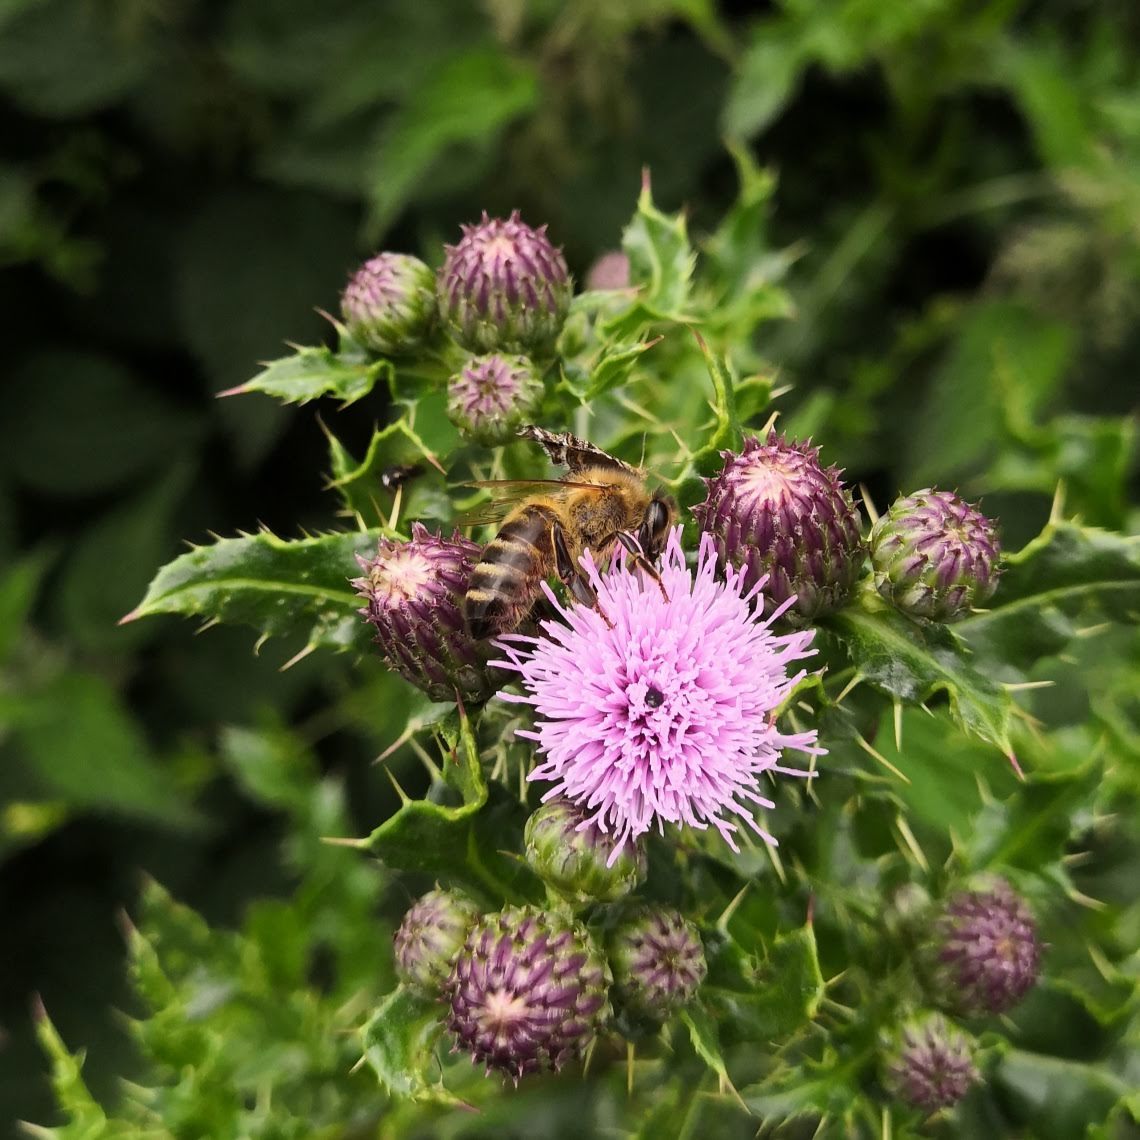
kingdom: Animalia
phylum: Arthropoda
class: Insecta
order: Hymenoptera
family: Apidae
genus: Apis
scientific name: Apis mellifera
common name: Honey bee
